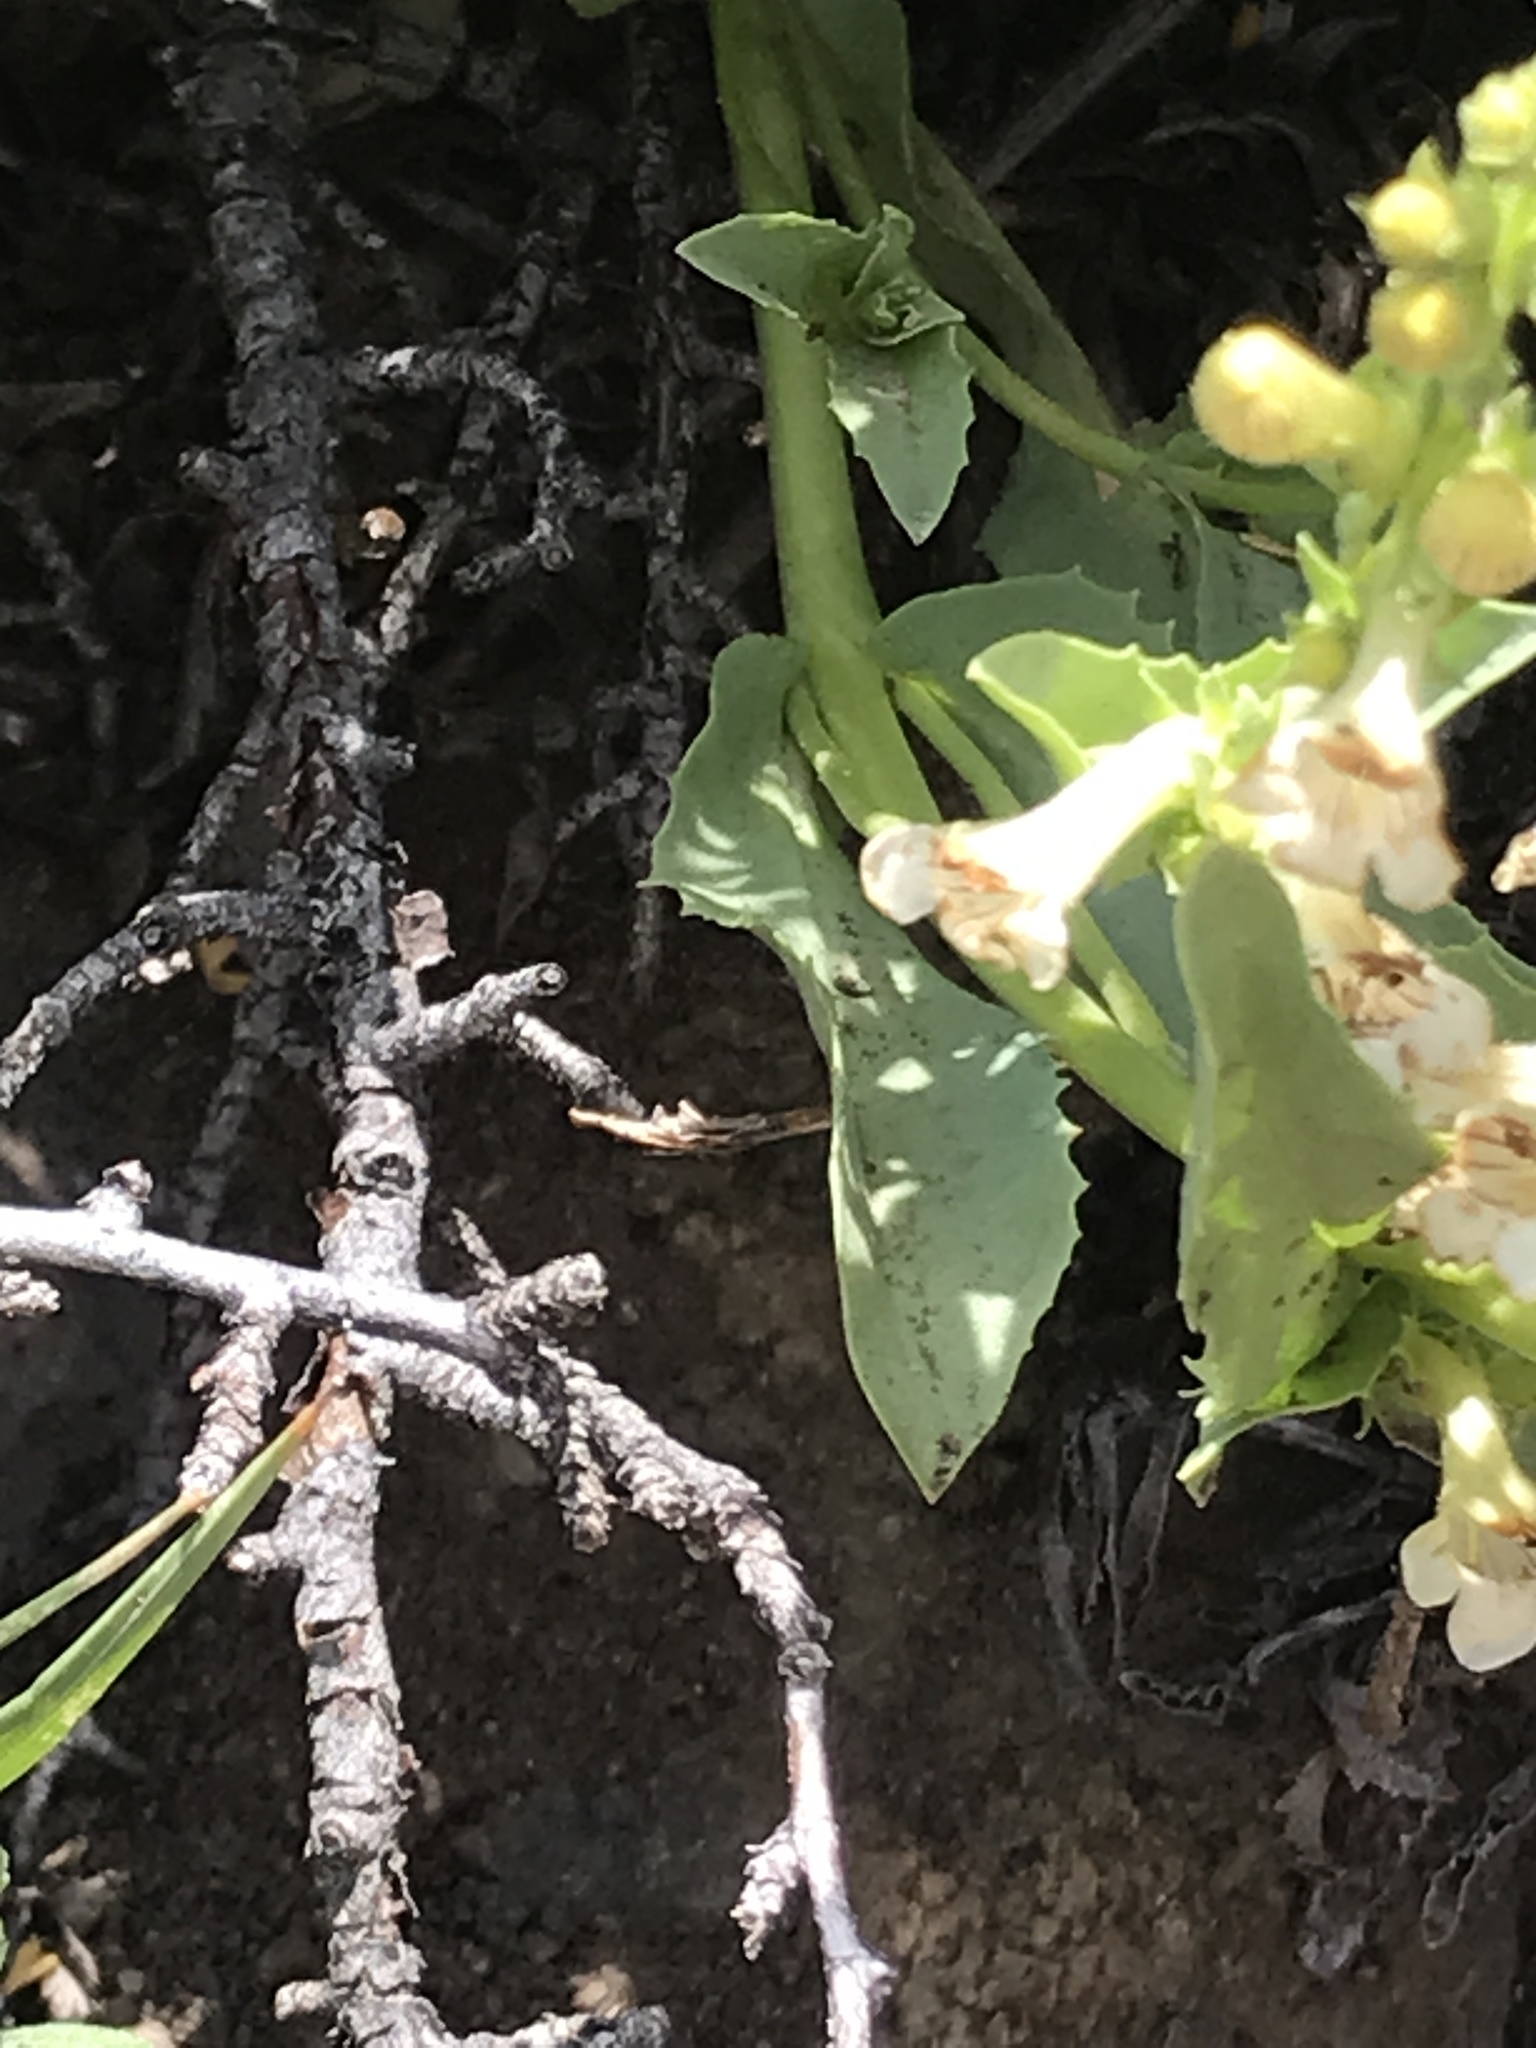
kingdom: Plantae
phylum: Tracheophyta
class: Magnoliopsida
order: Lamiales
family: Plantaginaceae
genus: Penstemon
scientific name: Penstemon deustus
